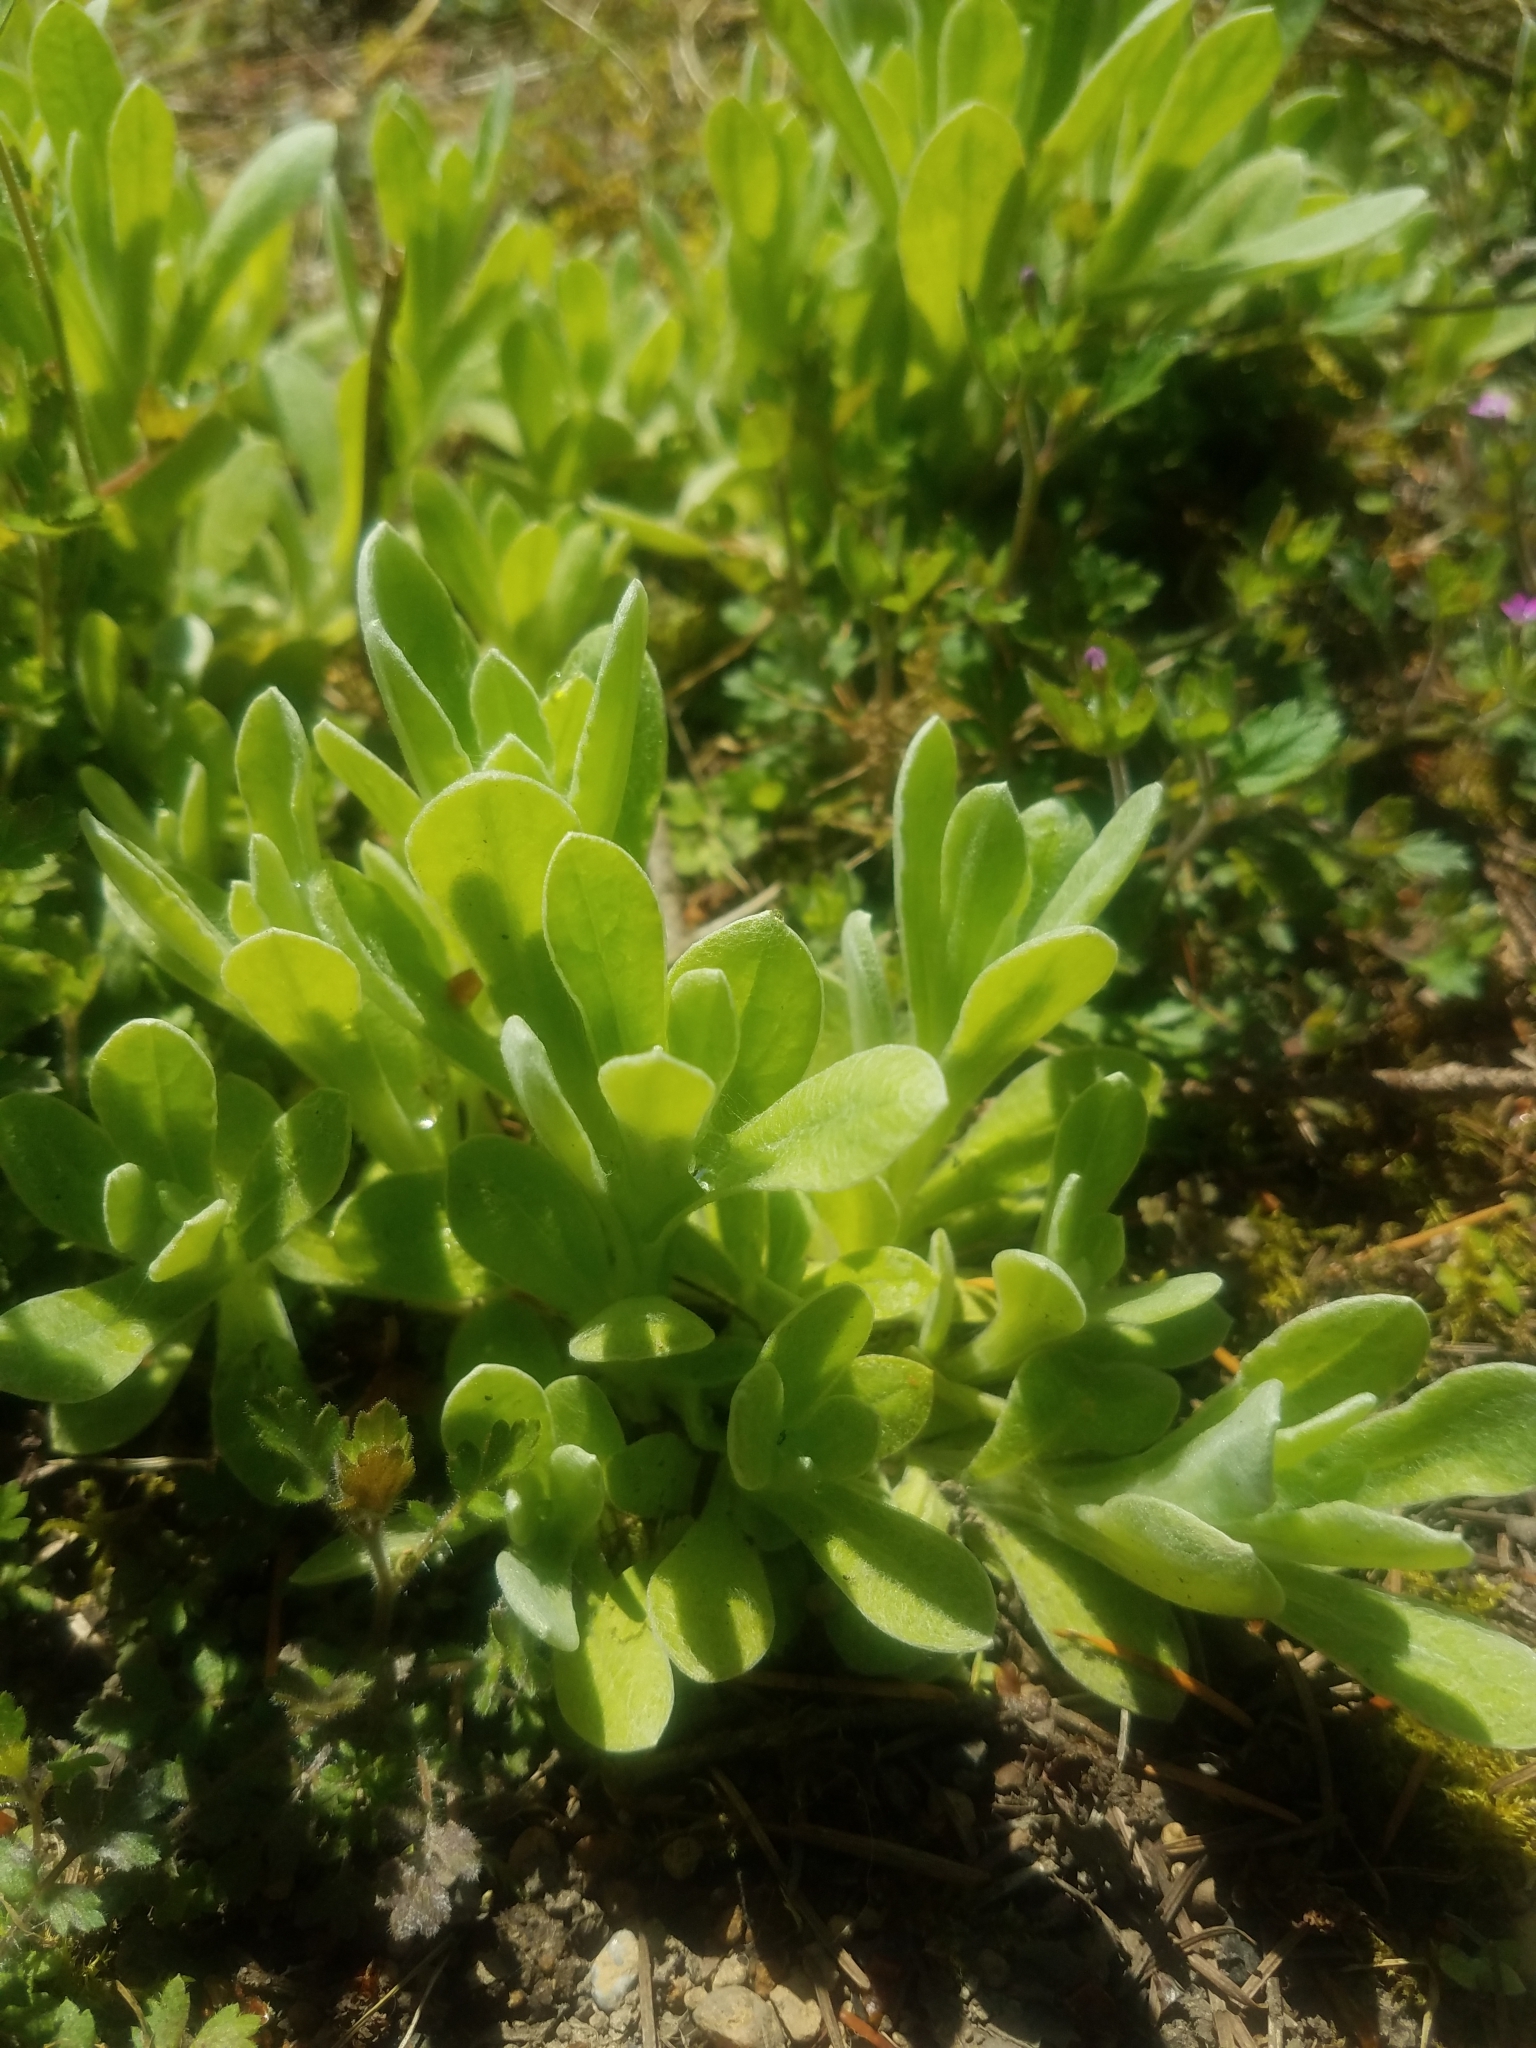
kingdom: Plantae
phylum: Tracheophyta
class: Magnoliopsida
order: Asterales
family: Asteraceae
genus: Pseudognaphalium
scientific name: Pseudognaphalium stramineum
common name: Cotton-batting-plant
